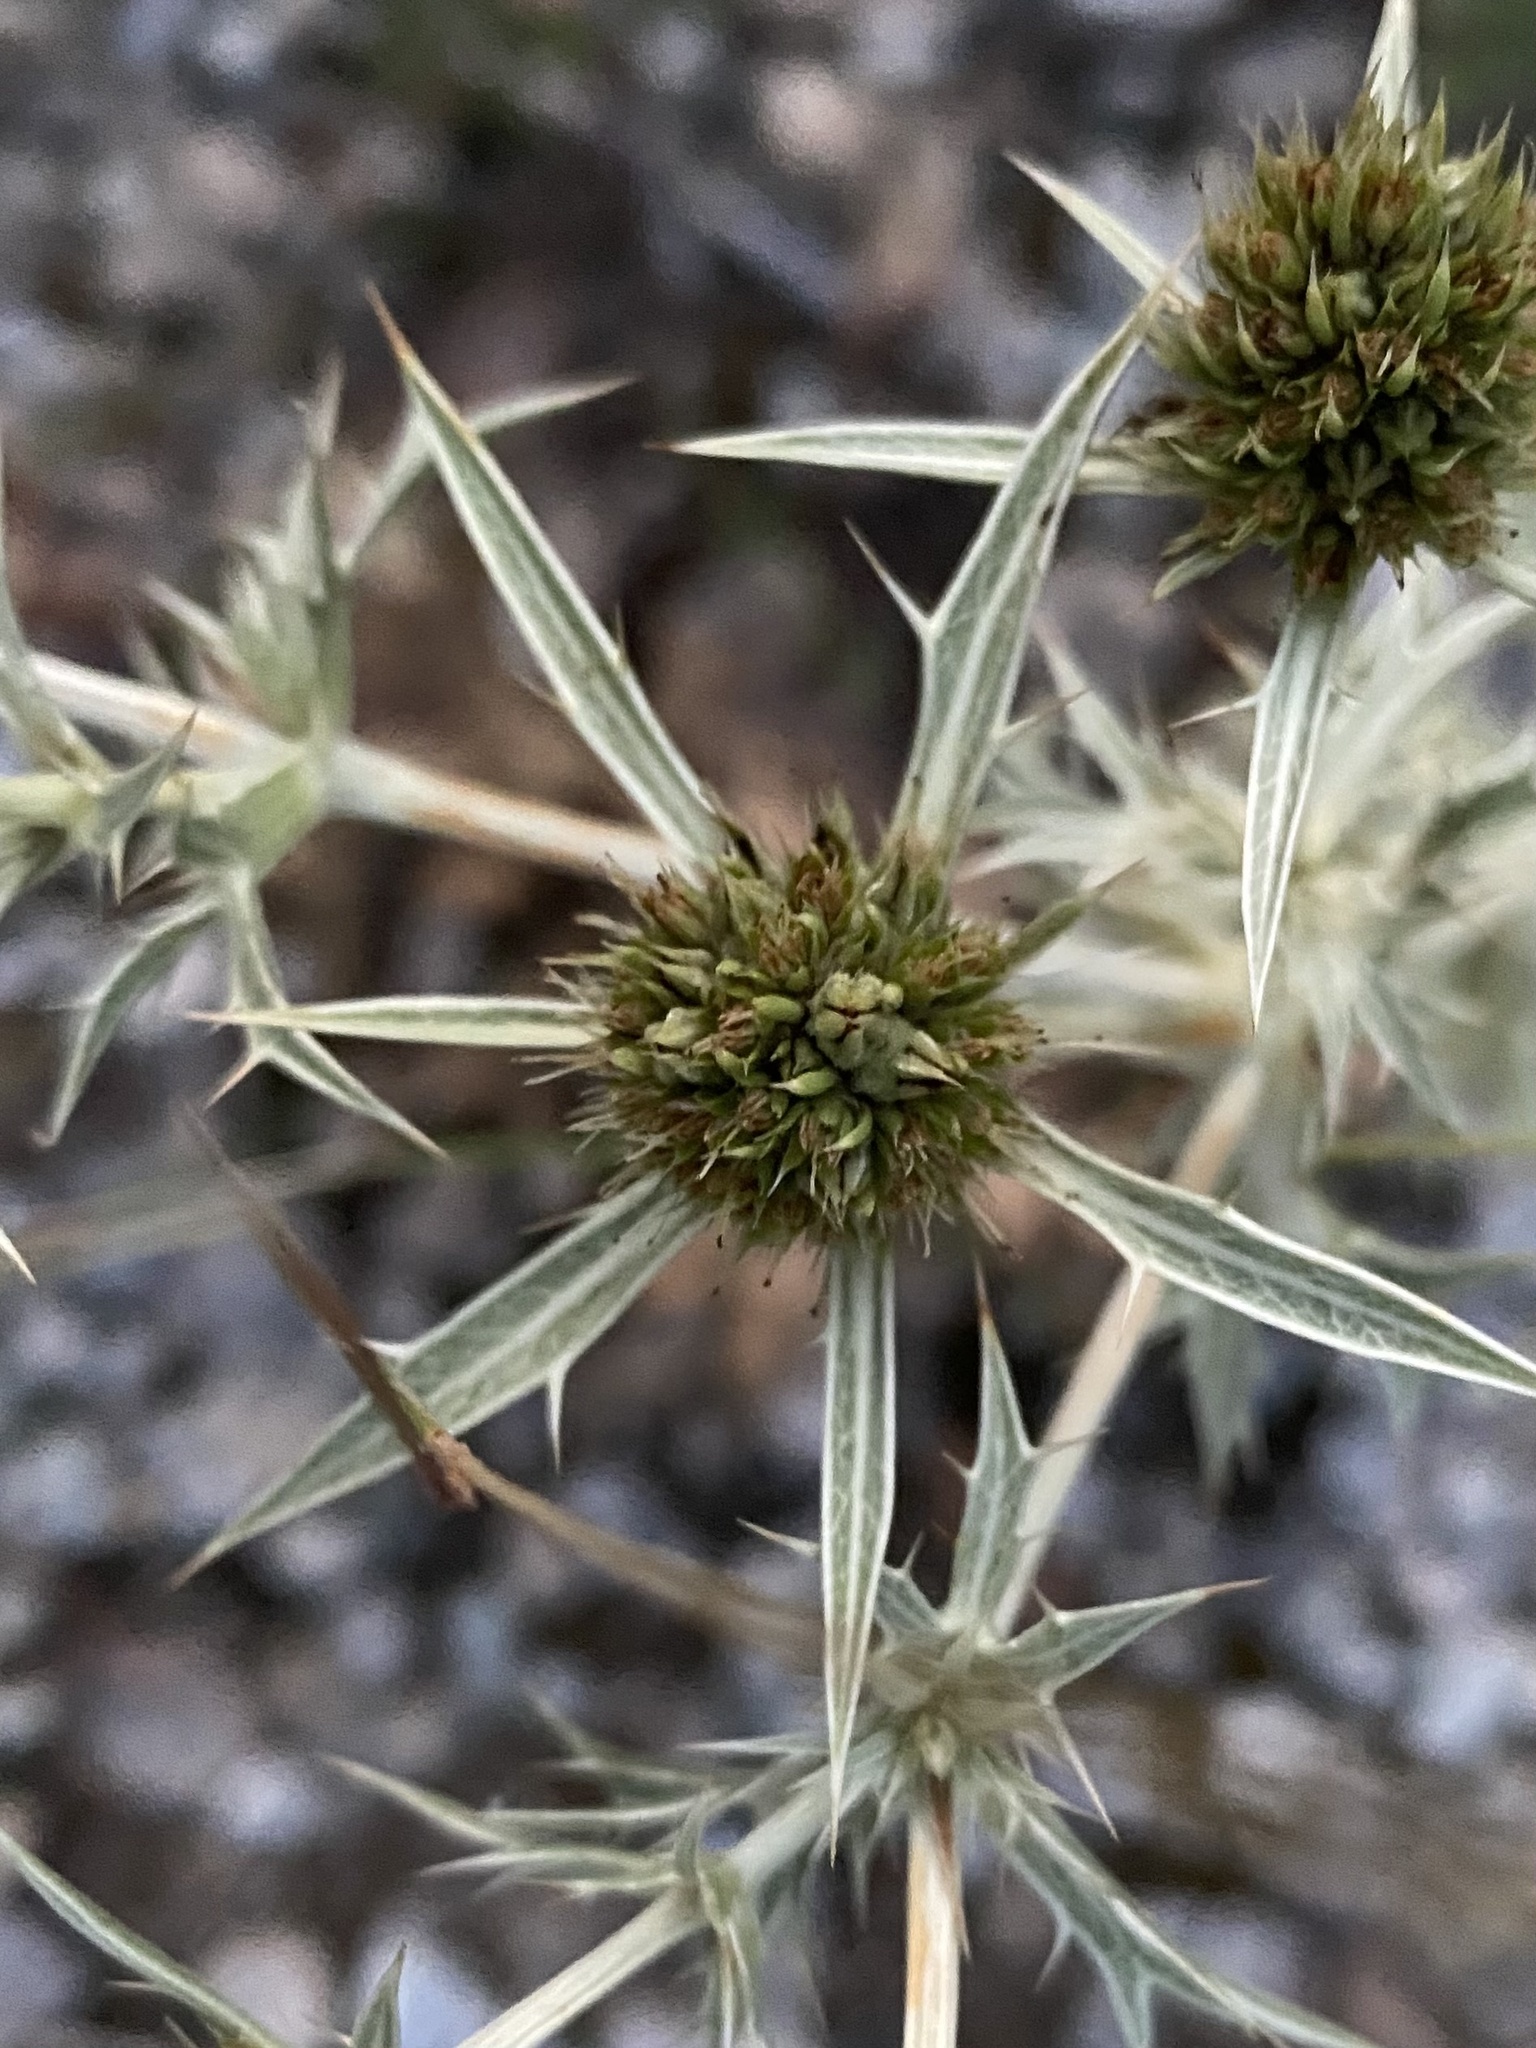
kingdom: Plantae
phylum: Tracheophyta
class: Magnoliopsida
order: Apiales
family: Apiaceae
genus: Eryngium
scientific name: Eryngium campestre
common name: Field eryngo
